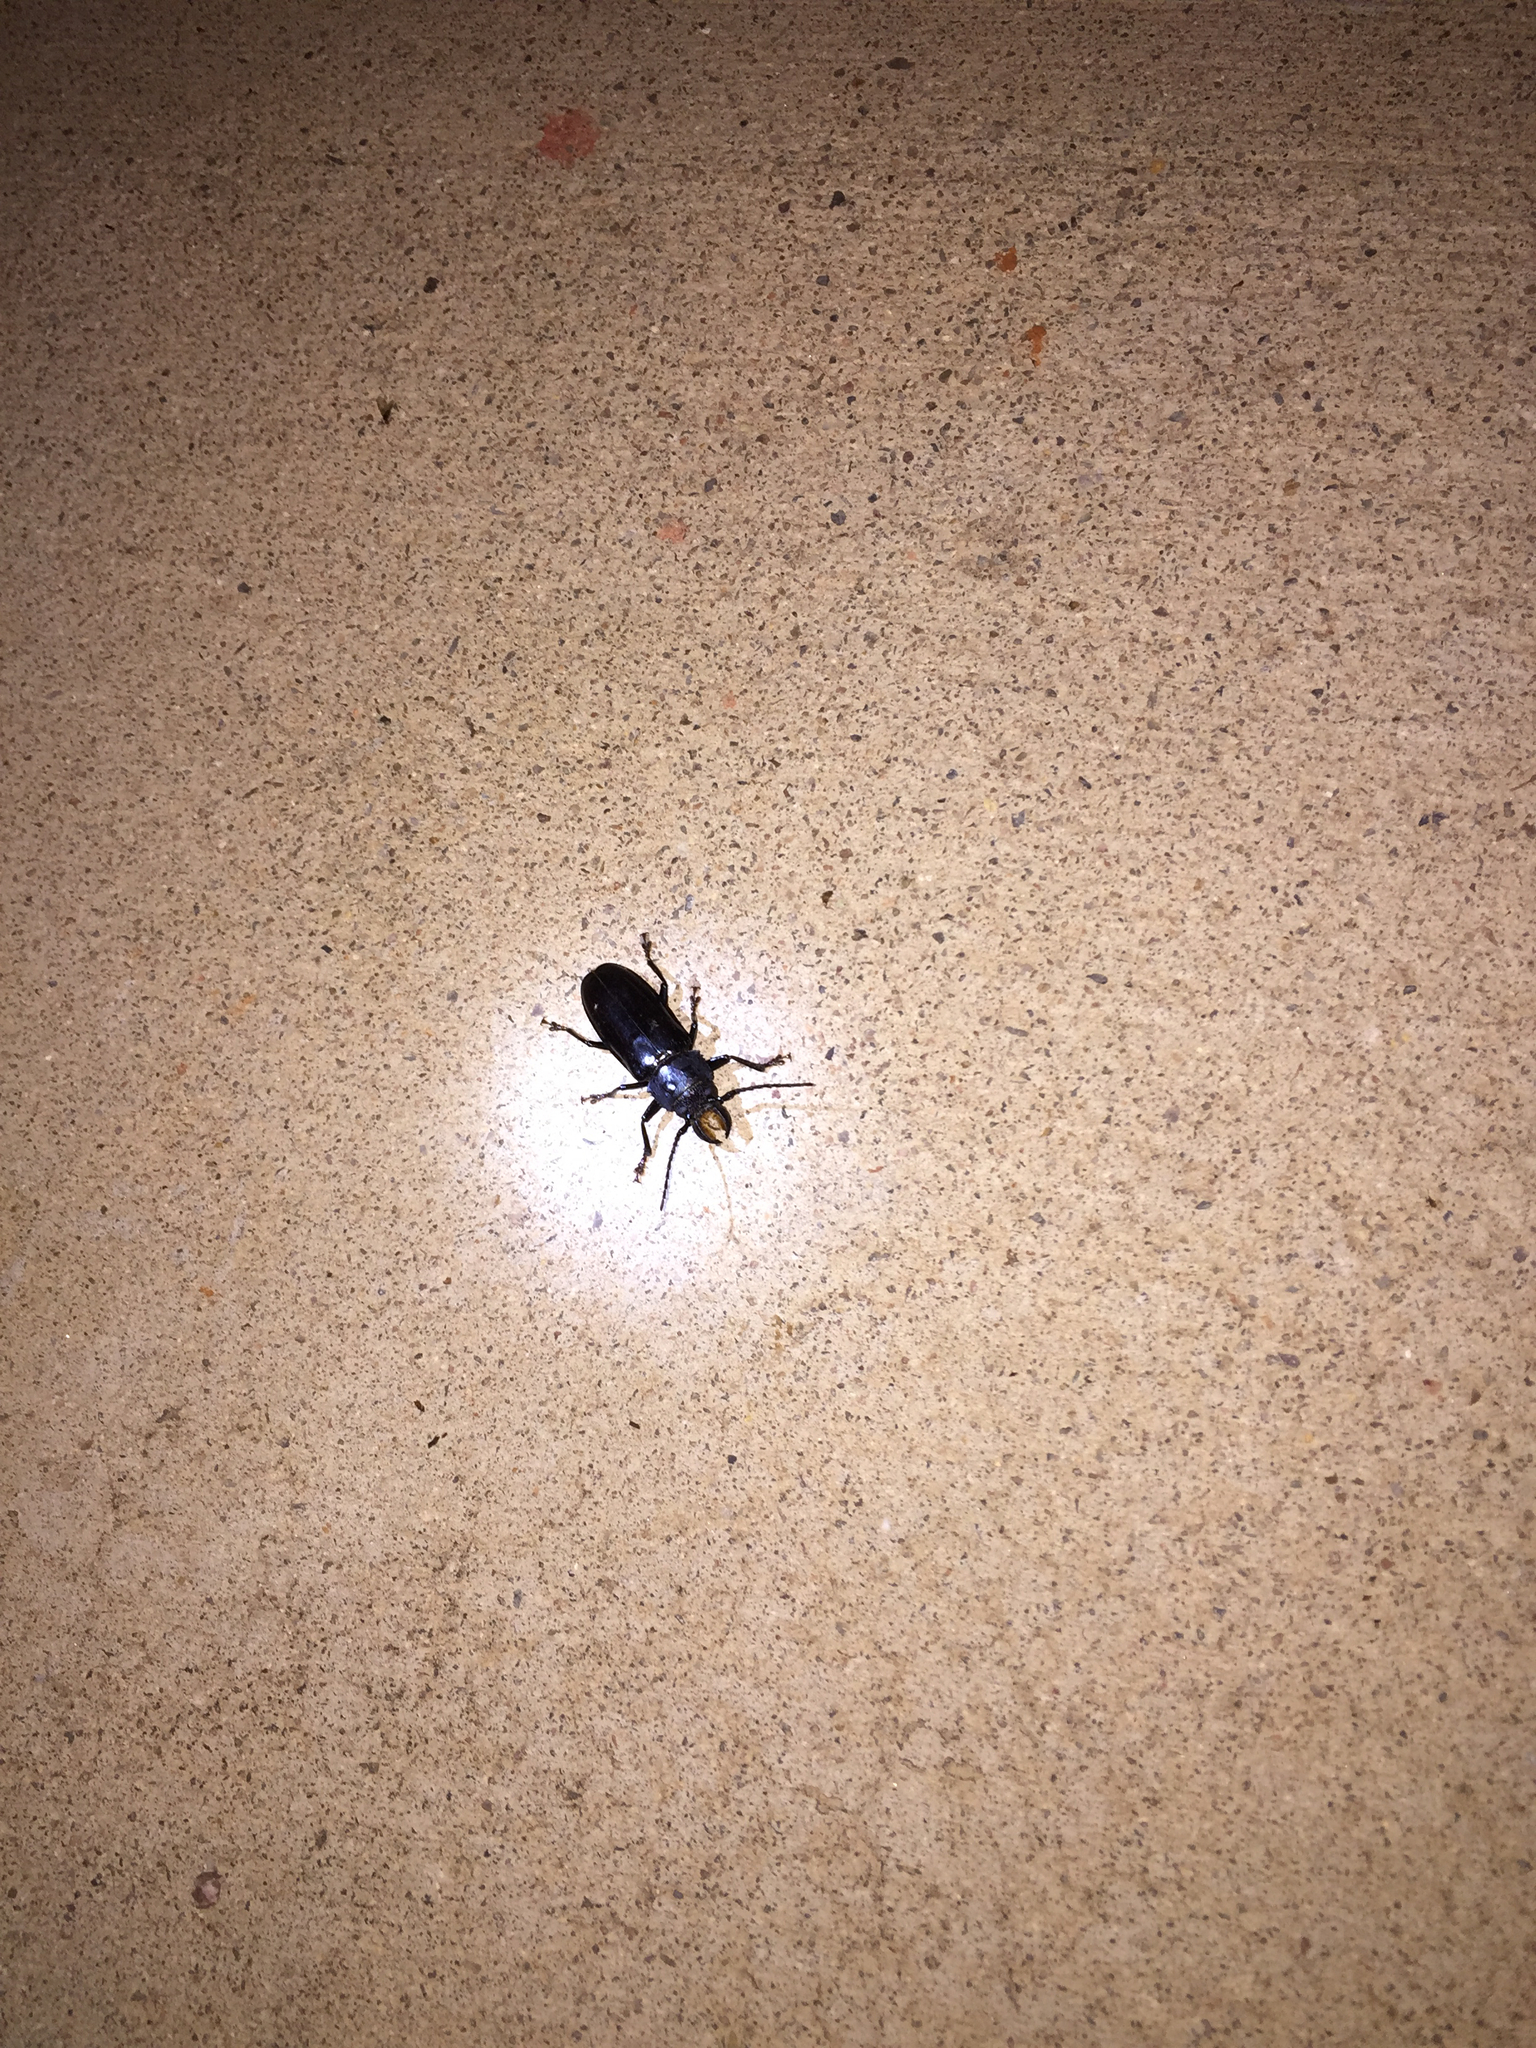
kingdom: Animalia
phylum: Arthropoda
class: Insecta
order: Coleoptera
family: Cerambycidae
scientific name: Cerambycidae
